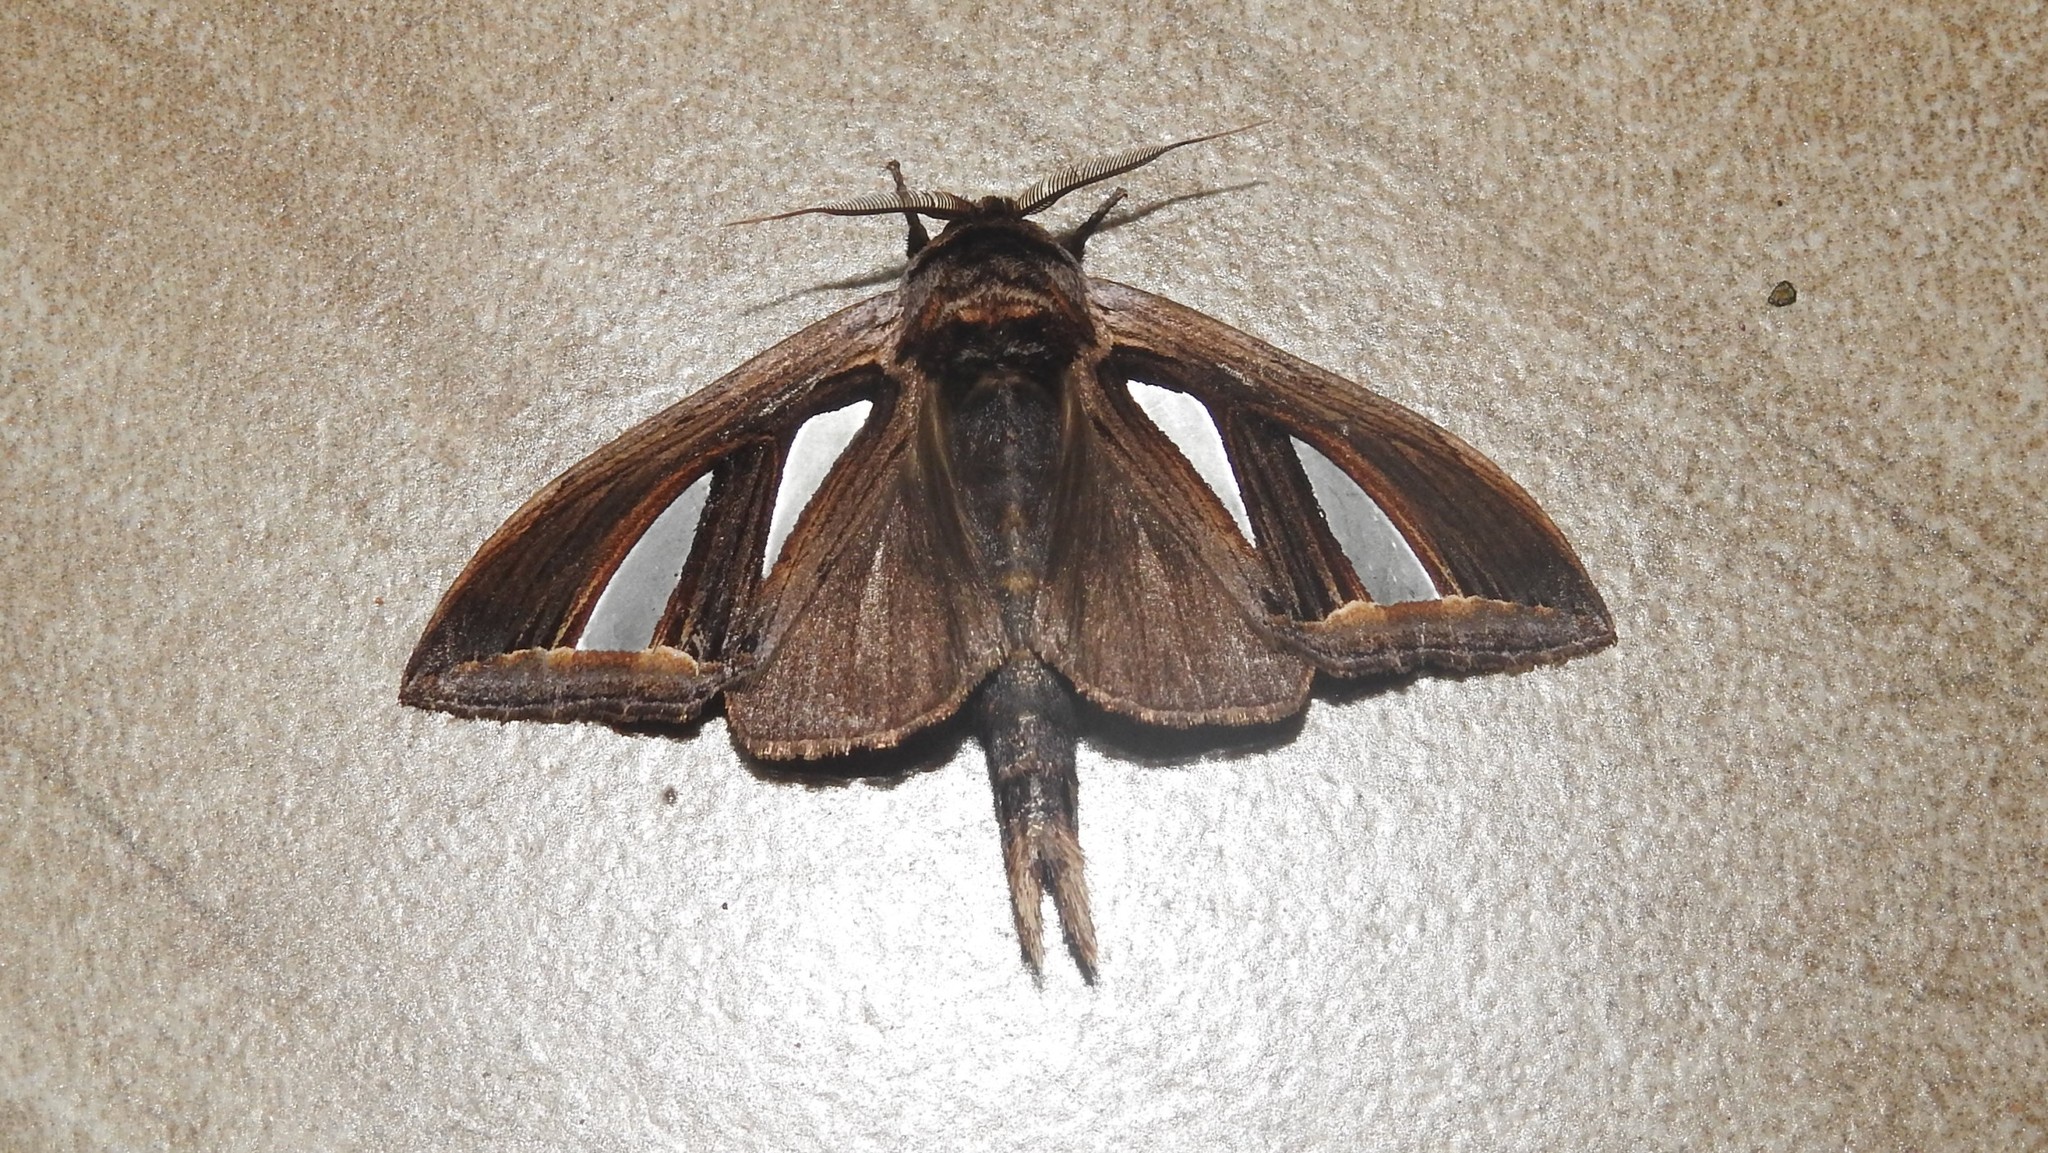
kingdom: Animalia
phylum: Arthropoda
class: Insecta
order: Lepidoptera
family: Notodontidae
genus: Tarsolepis
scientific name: Tarsolepis rufobrunnea
